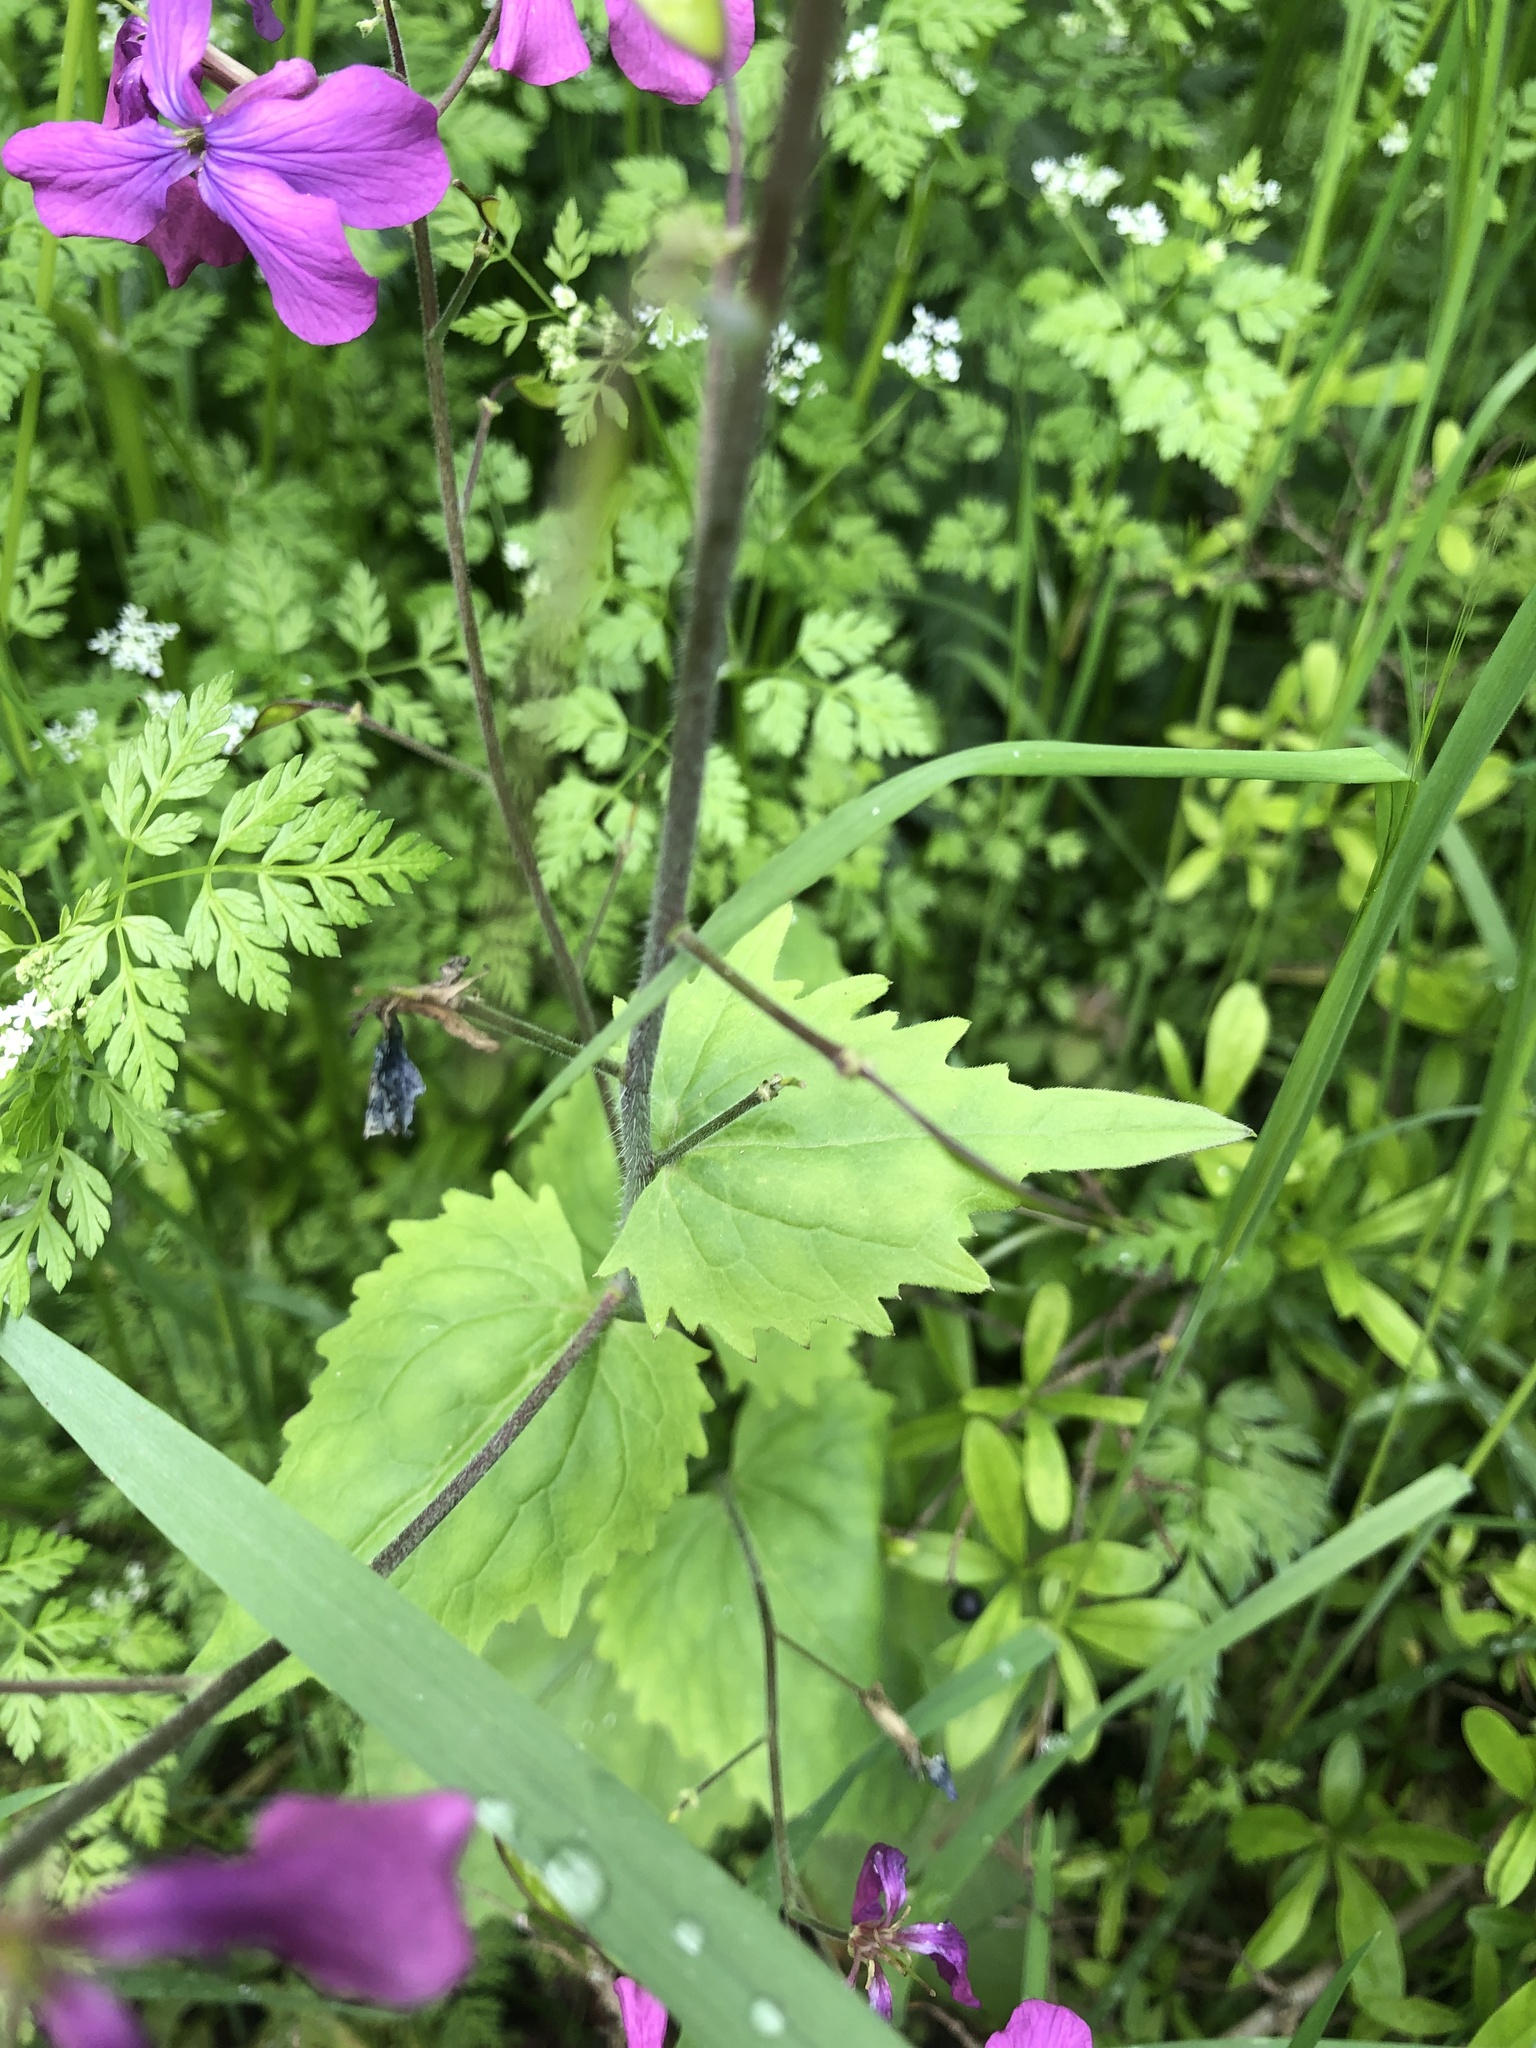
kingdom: Plantae
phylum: Tracheophyta
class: Magnoliopsida
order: Brassicales
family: Brassicaceae
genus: Lunaria
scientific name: Lunaria annua
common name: Honesty
